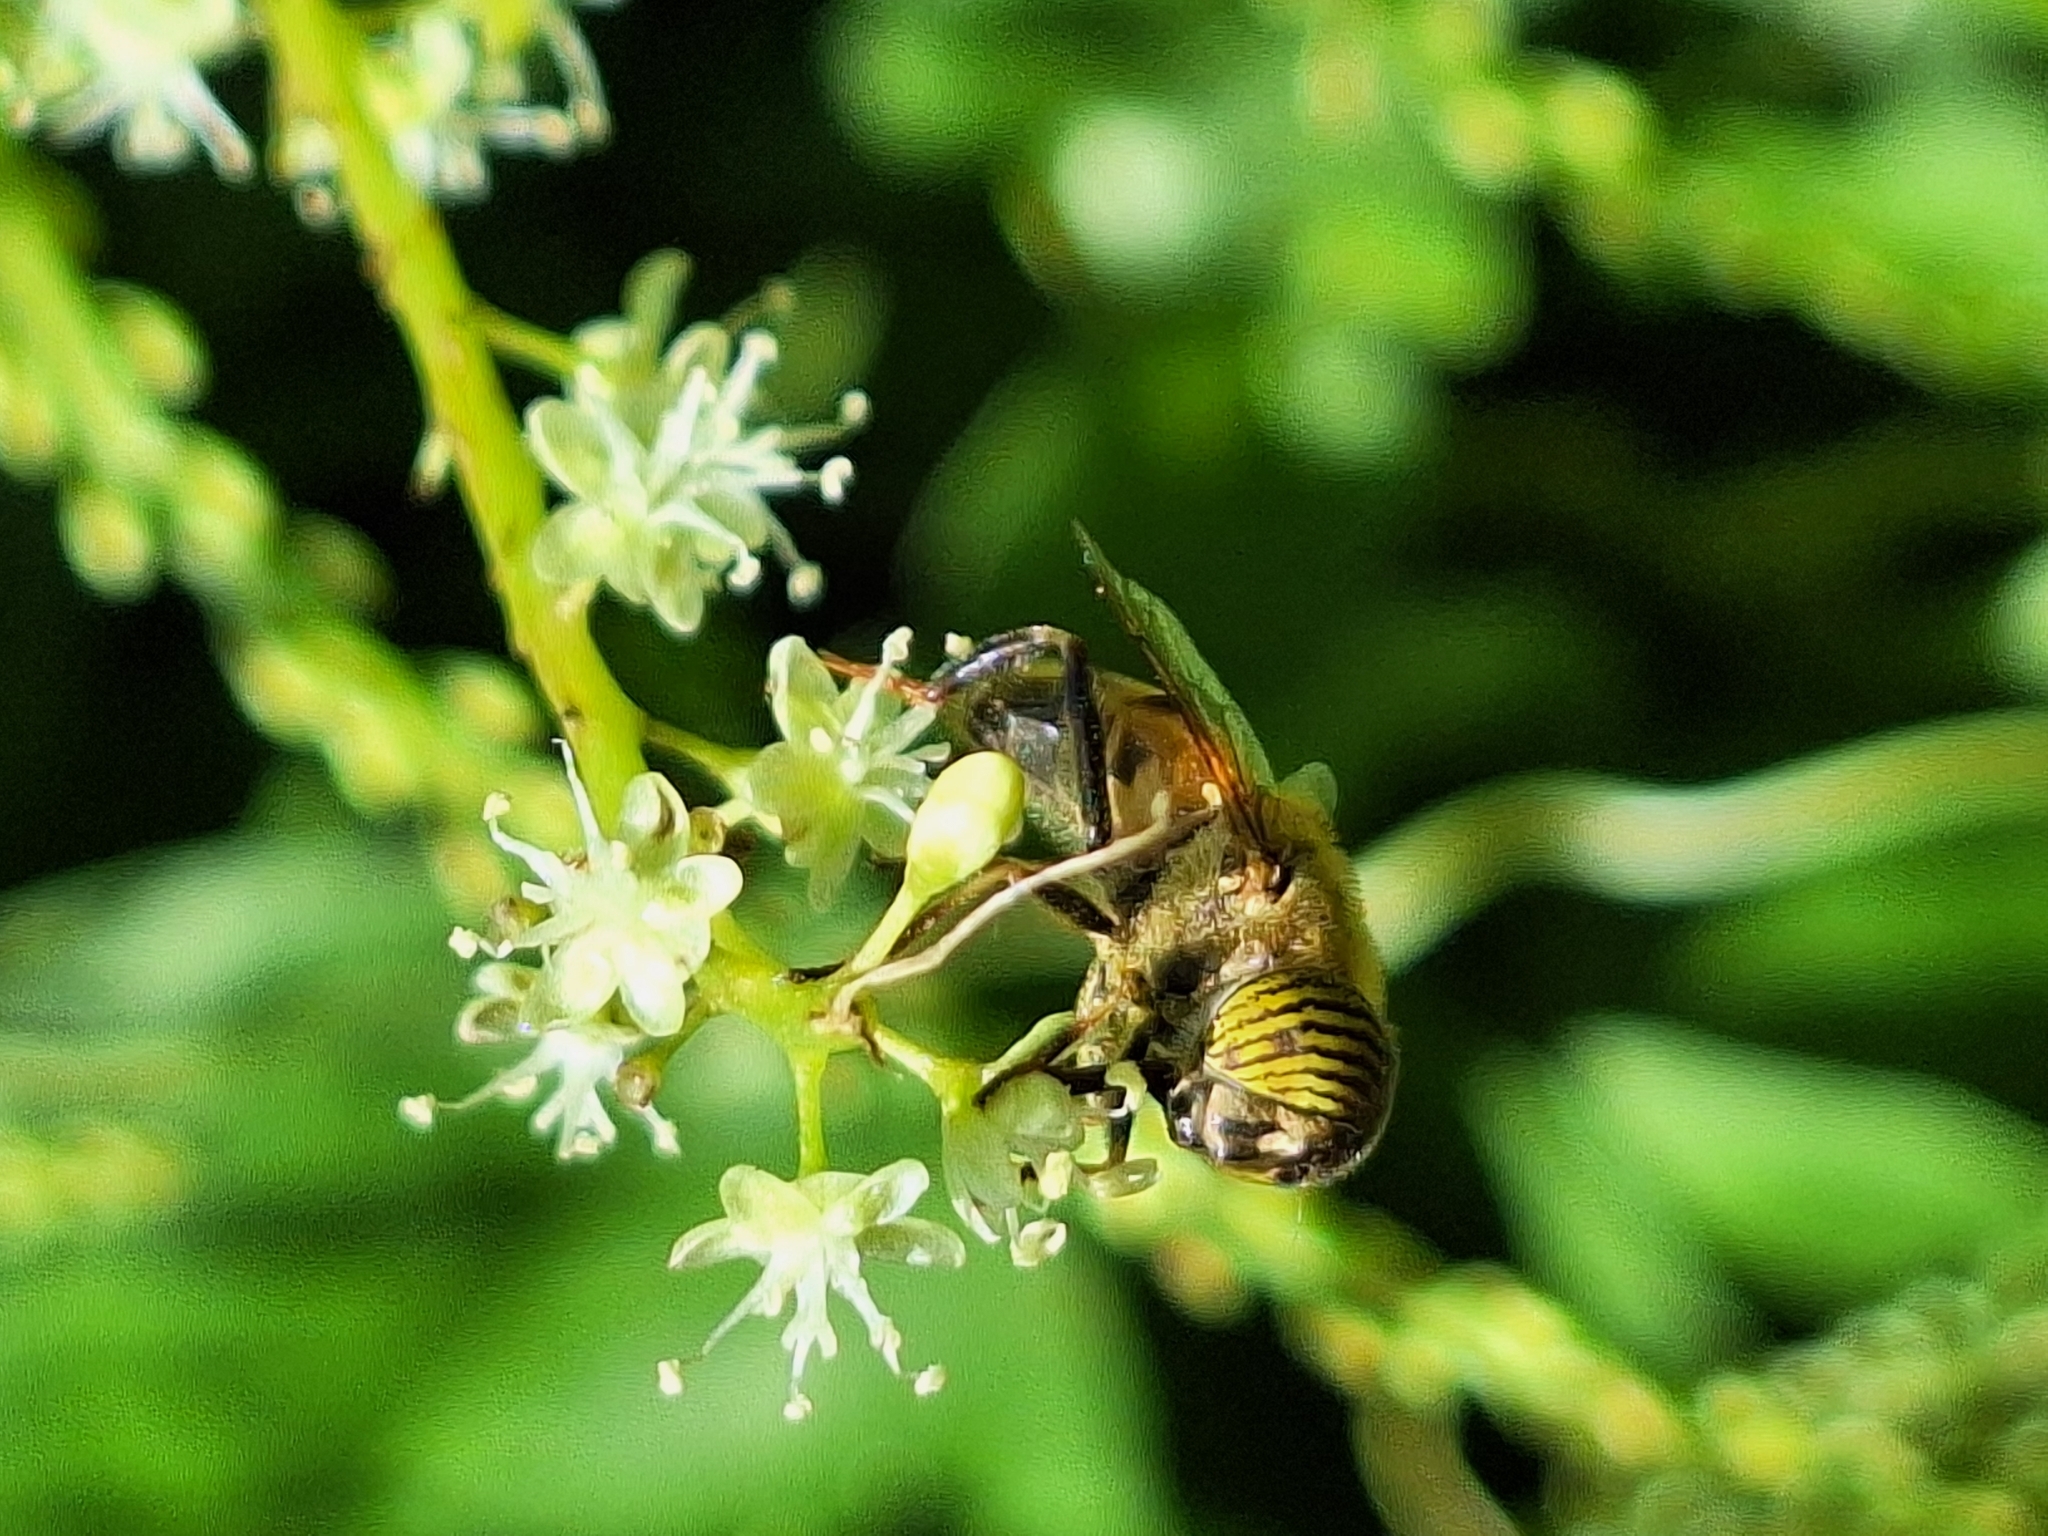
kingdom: Animalia
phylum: Arthropoda
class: Insecta
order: Diptera
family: Syrphidae
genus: Eristalinus
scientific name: Eristalinus taeniops
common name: Syrphid fly
